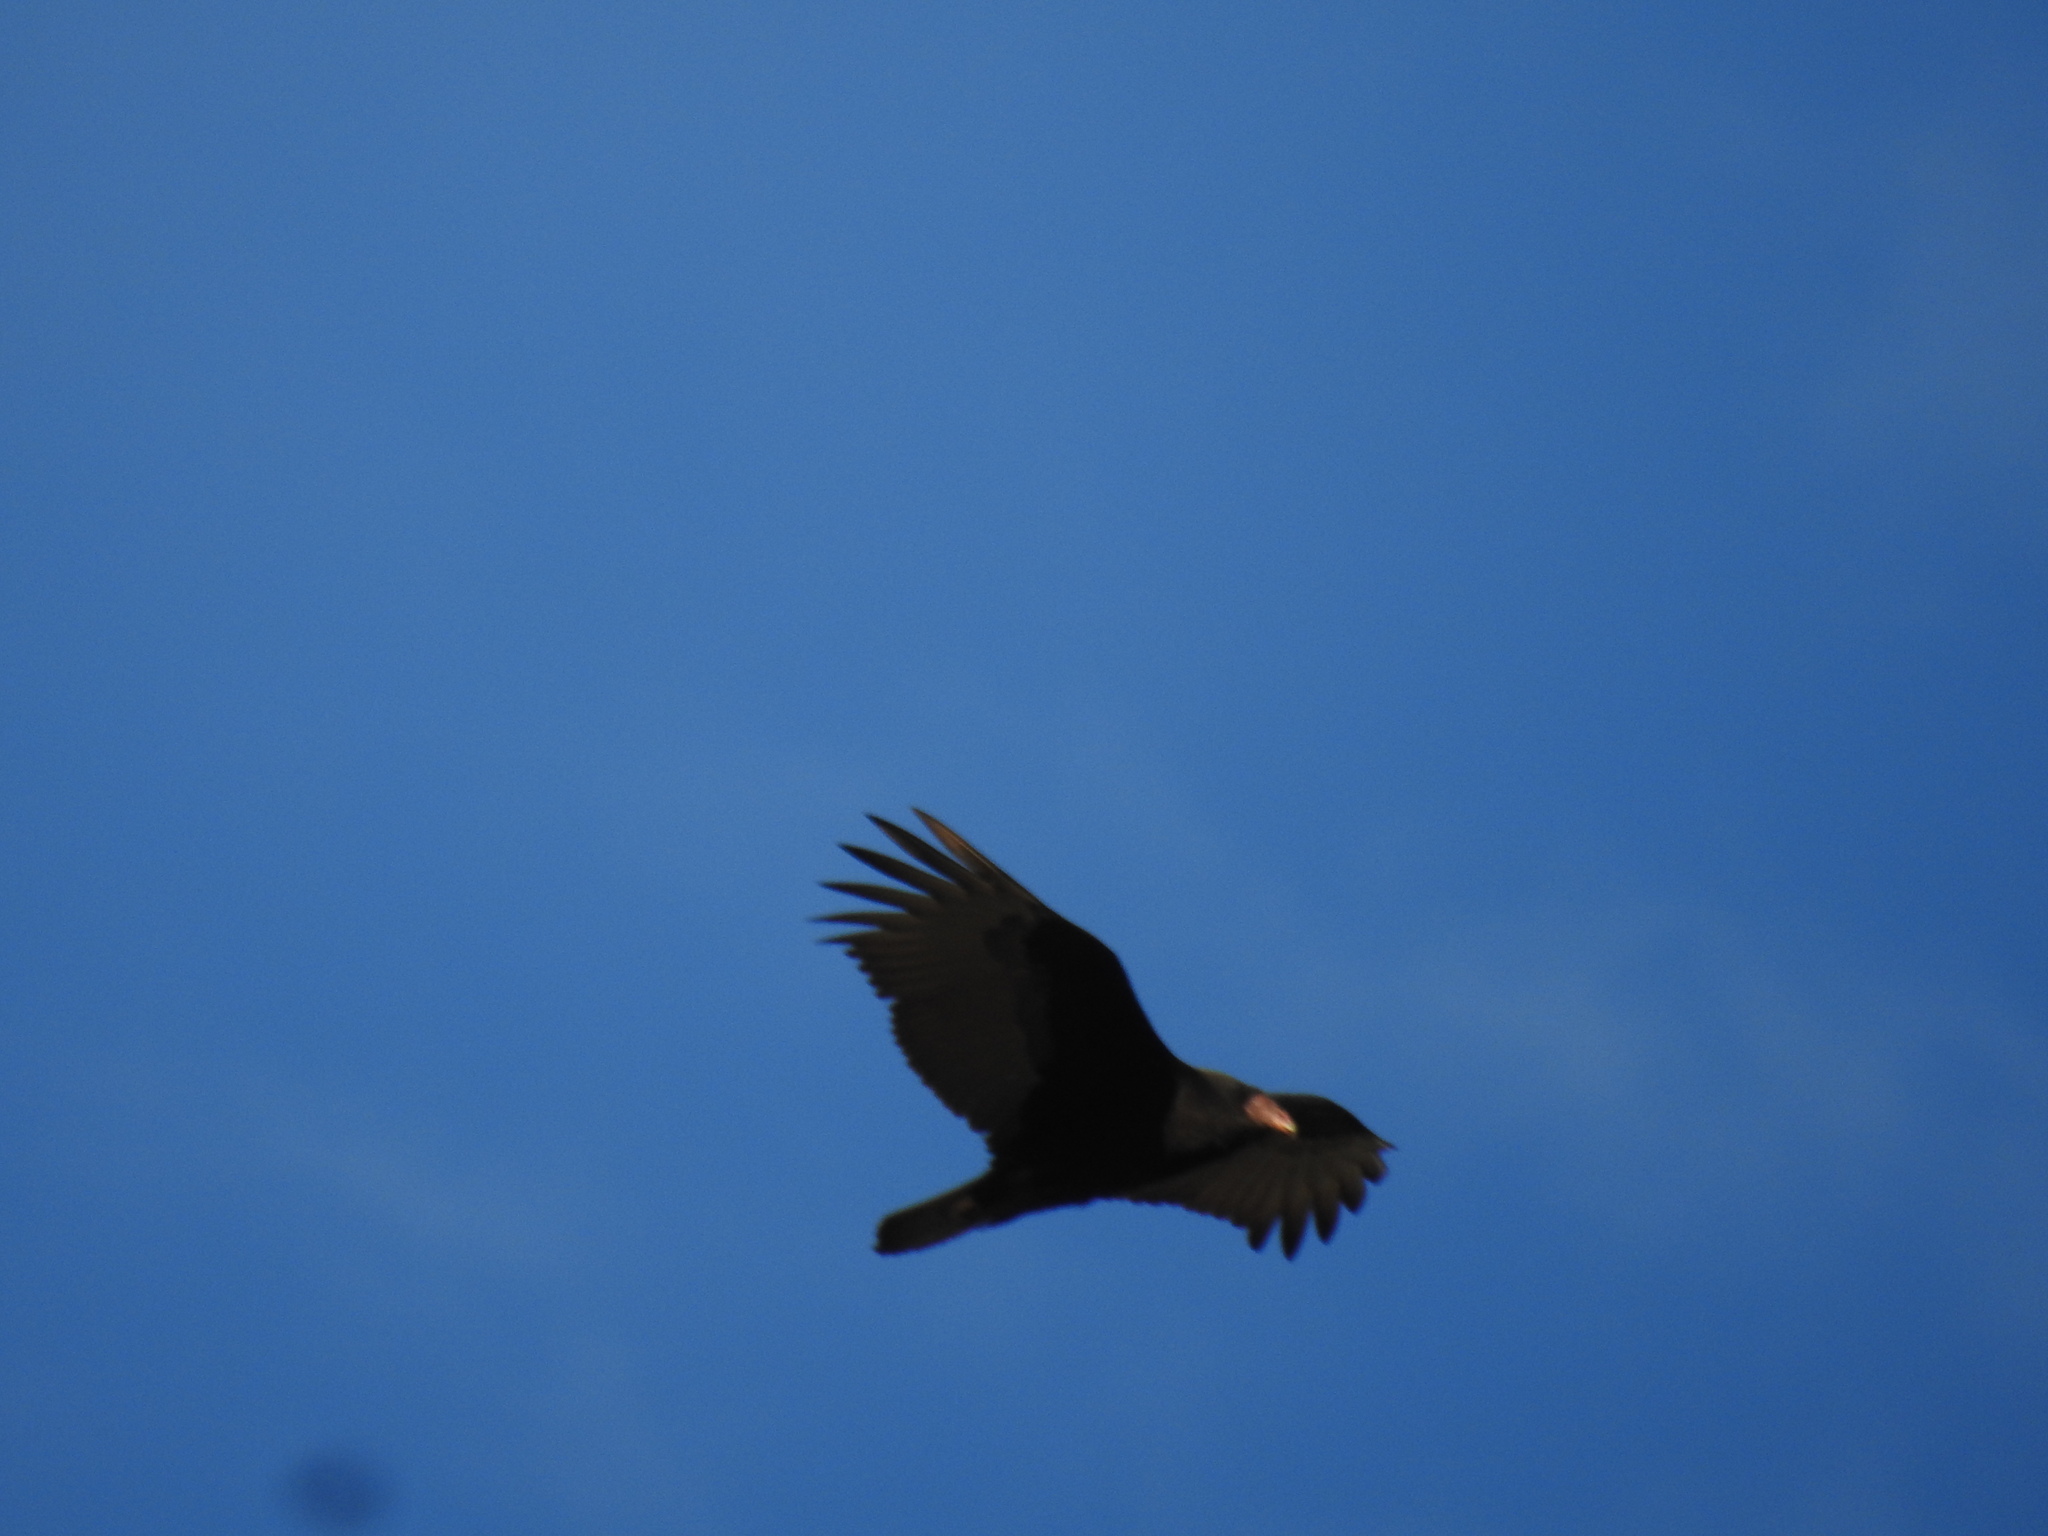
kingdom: Animalia
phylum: Chordata
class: Aves
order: Accipitriformes
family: Cathartidae
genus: Cathartes
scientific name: Cathartes aura
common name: Turkey vulture
